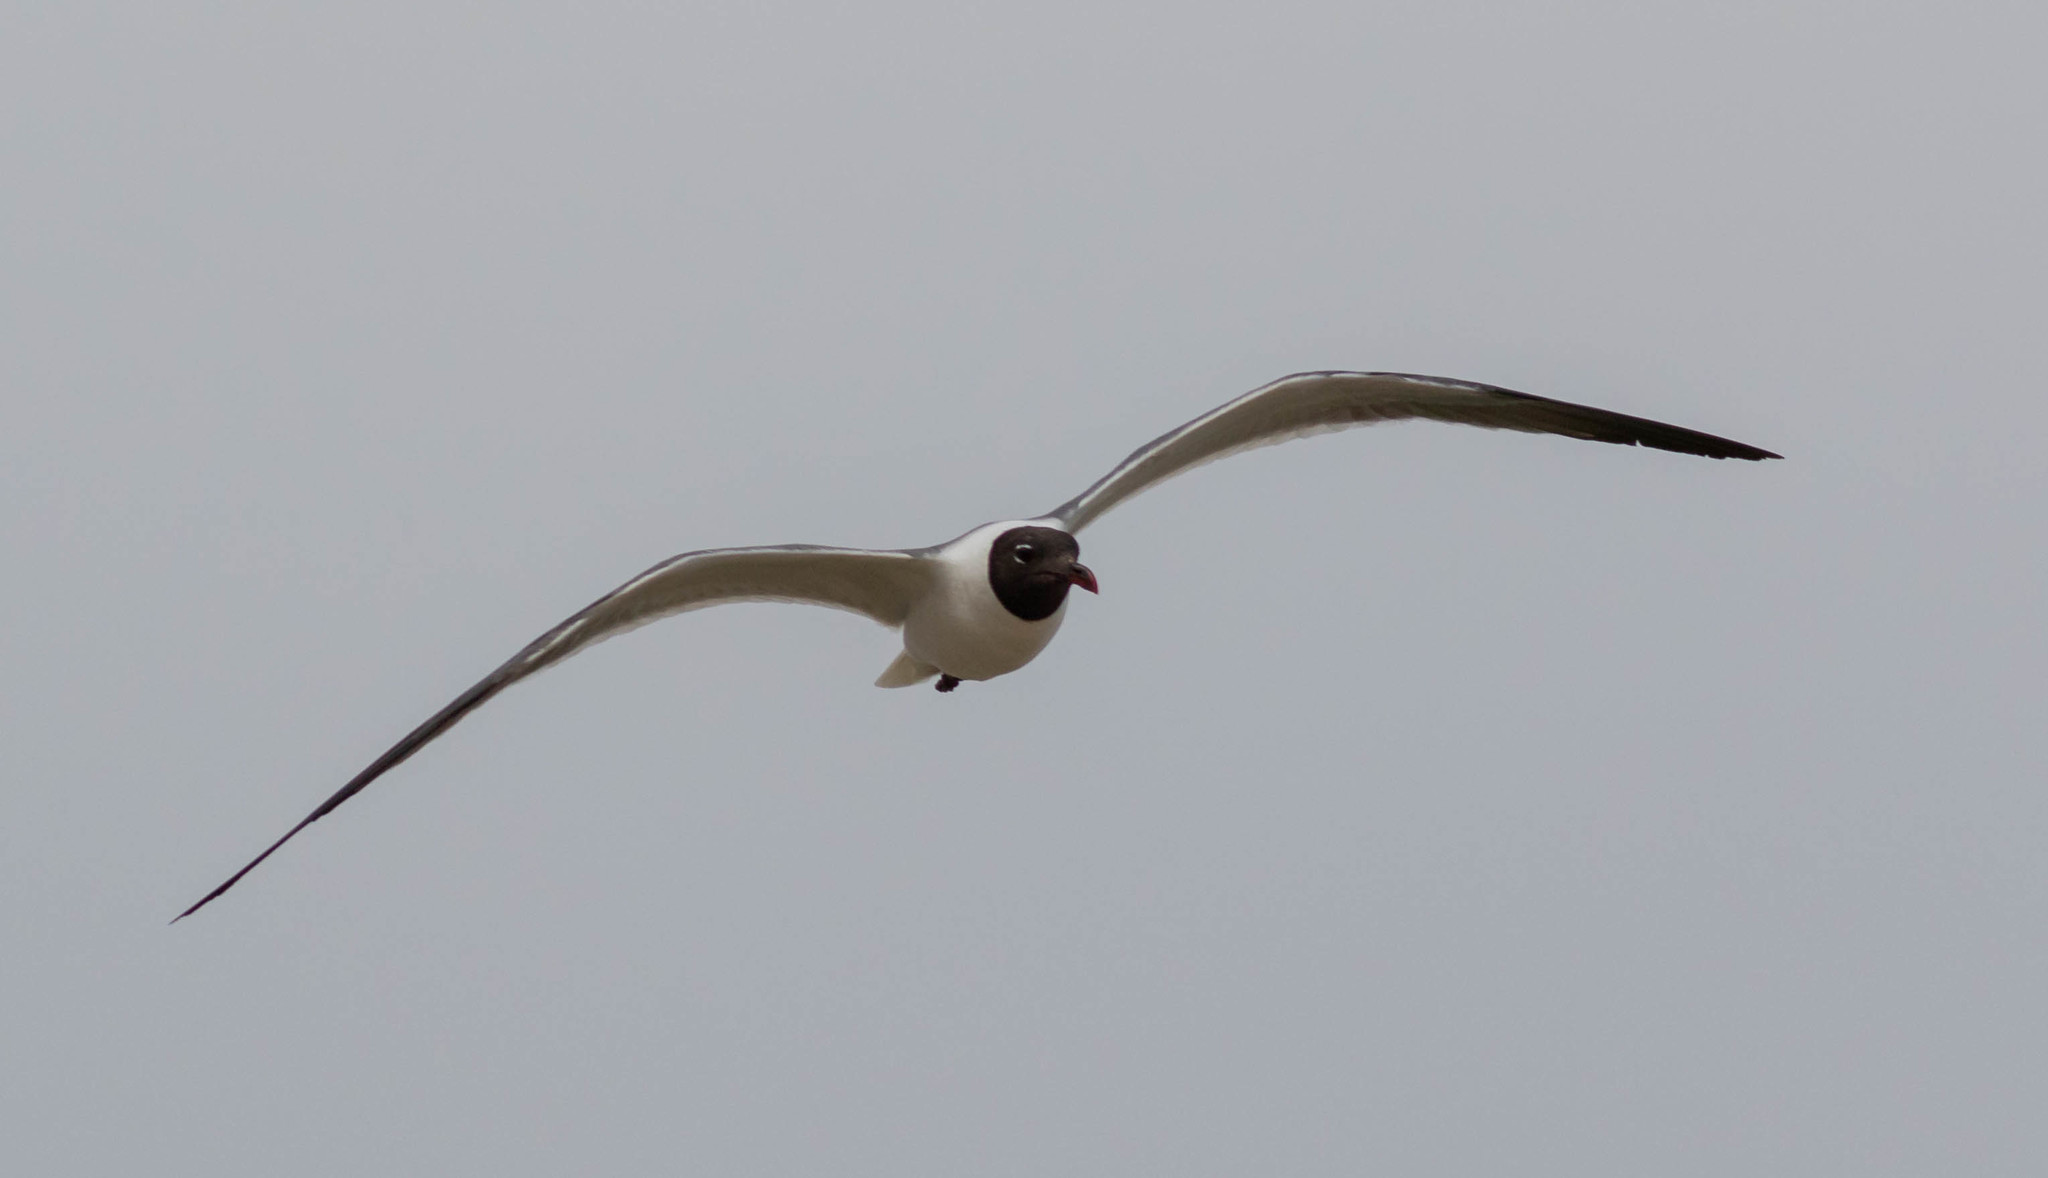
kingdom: Animalia
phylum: Chordata
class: Aves
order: Charadriiformes
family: Laridae
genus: Leucophaeus
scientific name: Leucophaeus atricilla
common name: Laughing gull
